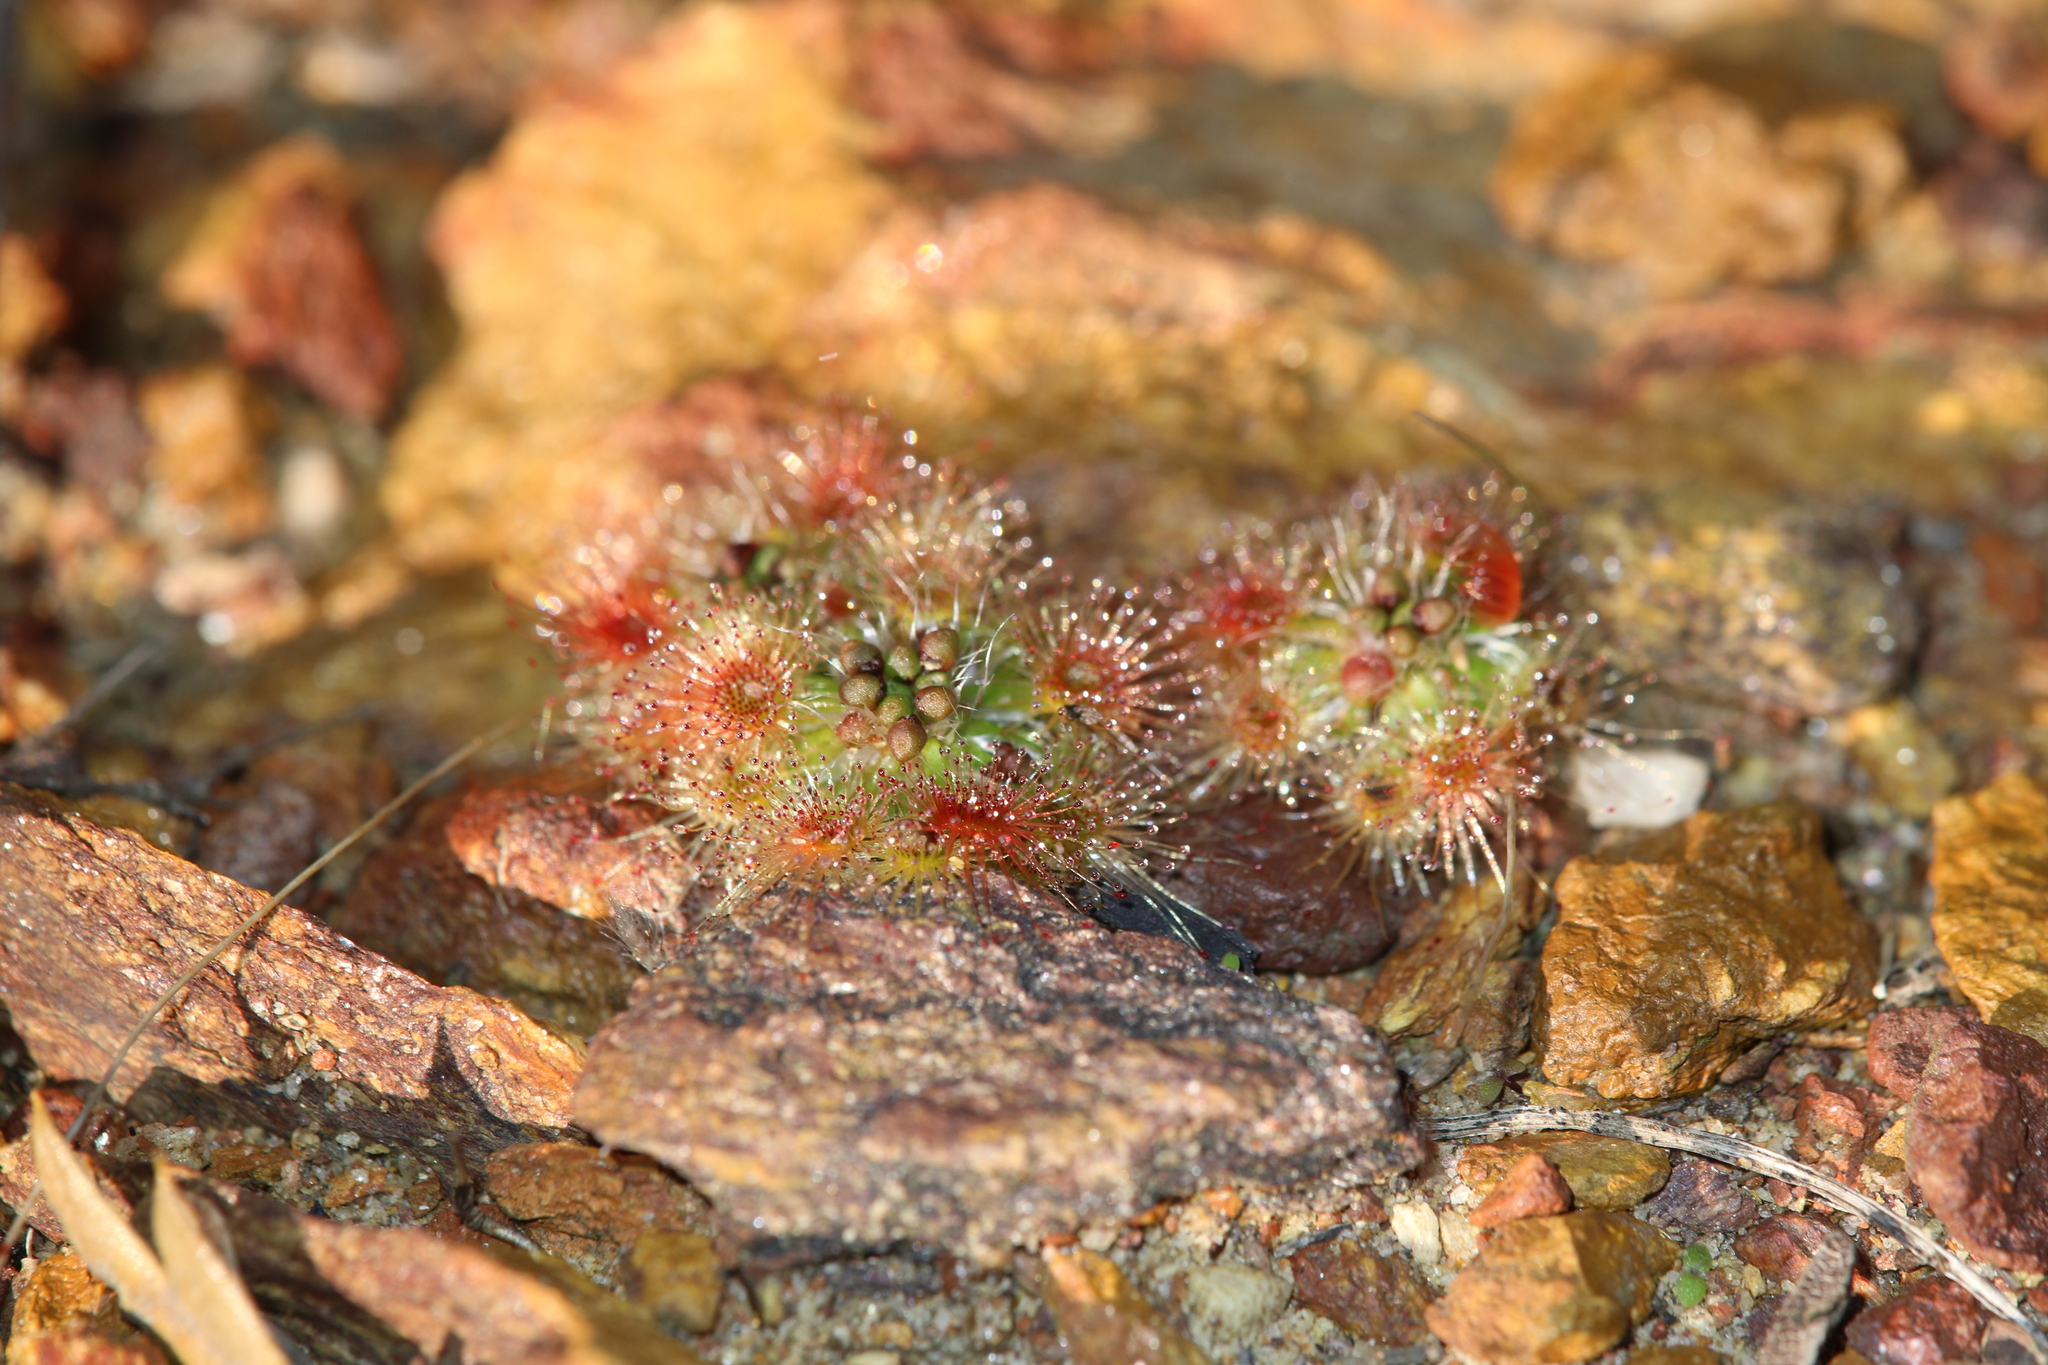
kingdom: Plantae
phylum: Tracheophyta
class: Magnoliopsida
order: Caryophyllales
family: Droseraceae
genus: Drosera
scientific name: Drosera spilos
